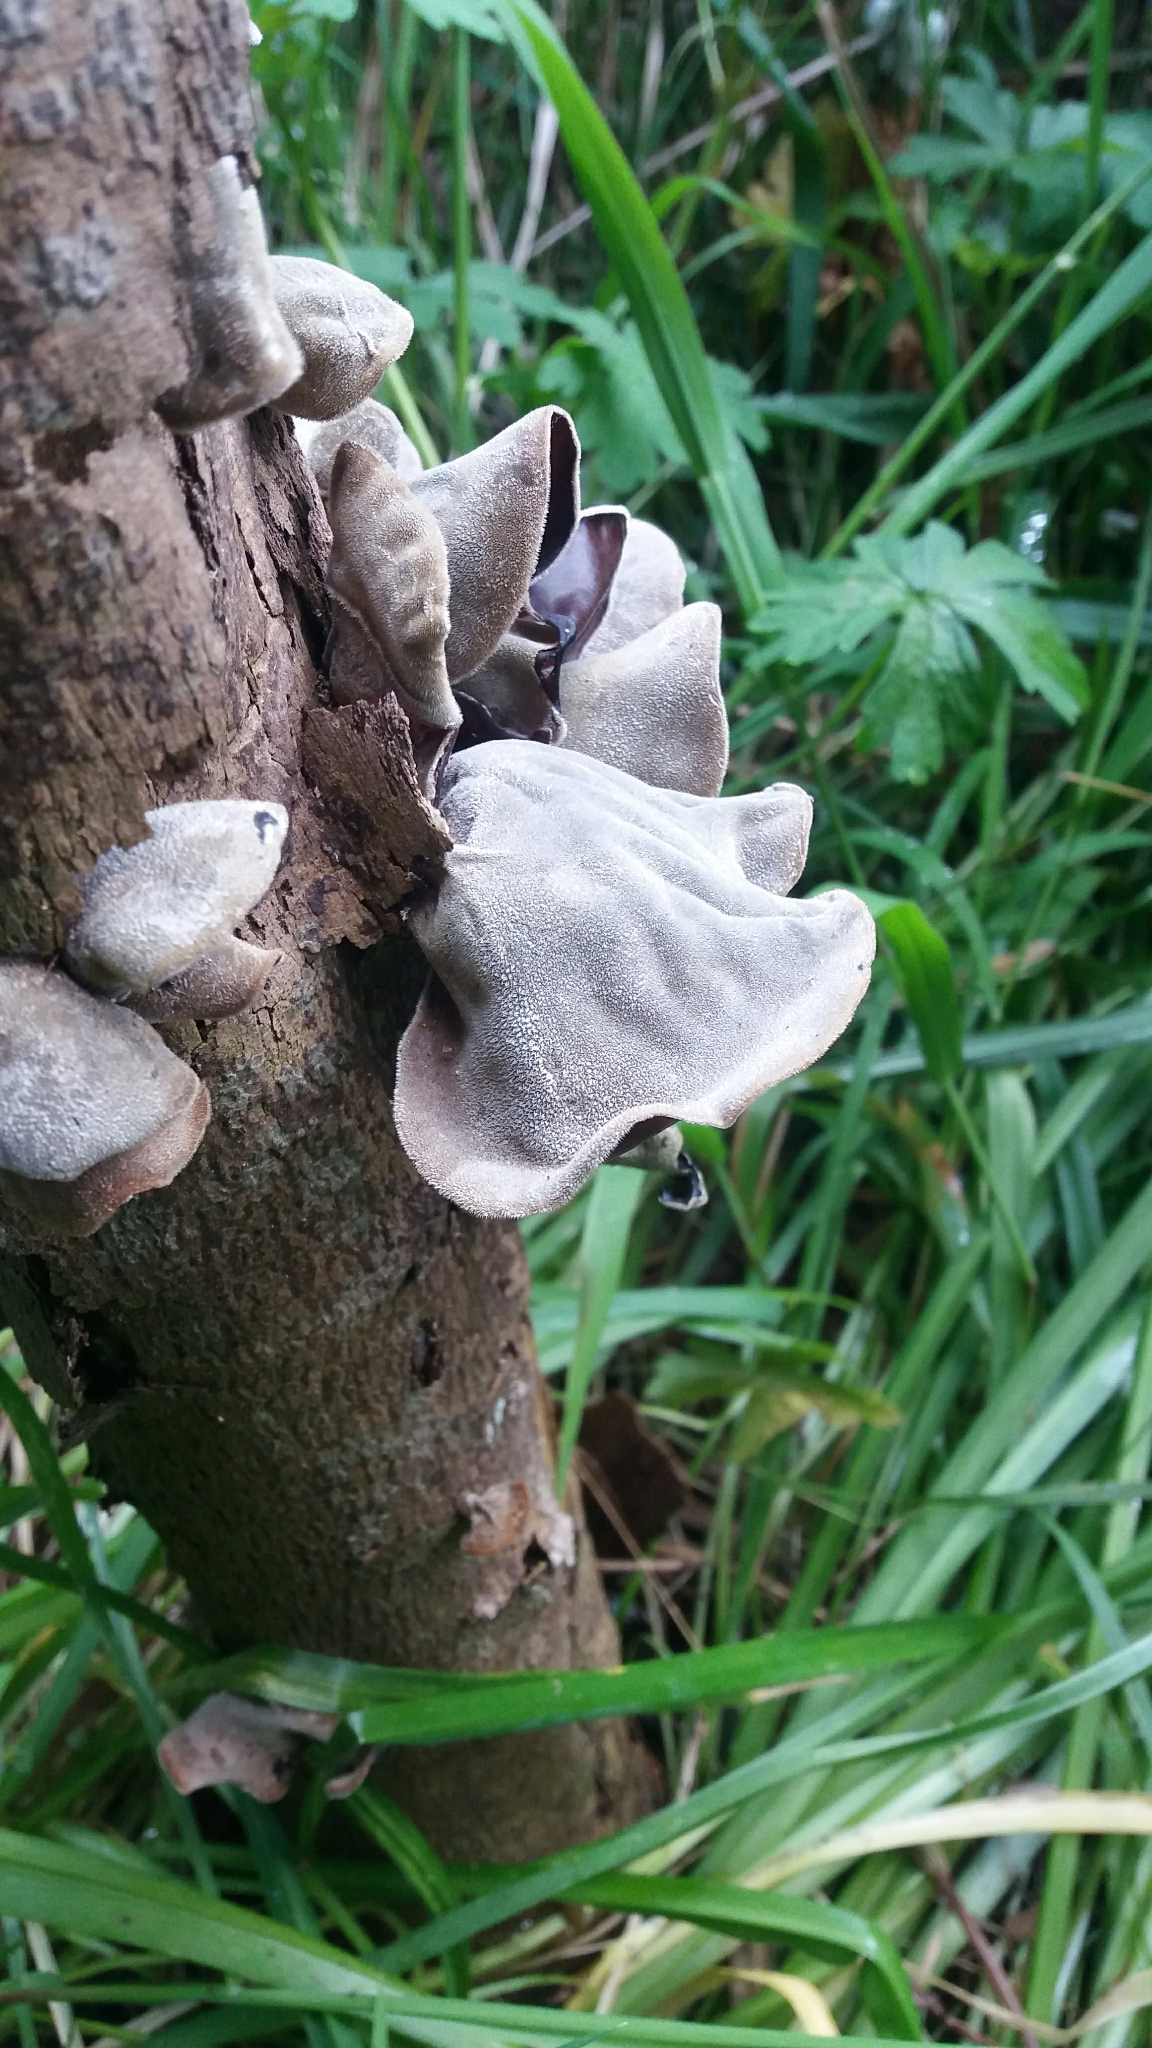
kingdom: Fungi
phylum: Basidiomycota
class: Agaricomycetes
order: Auriculariales
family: Auriculariaceae
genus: Auricularia
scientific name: Auricularia cornea
